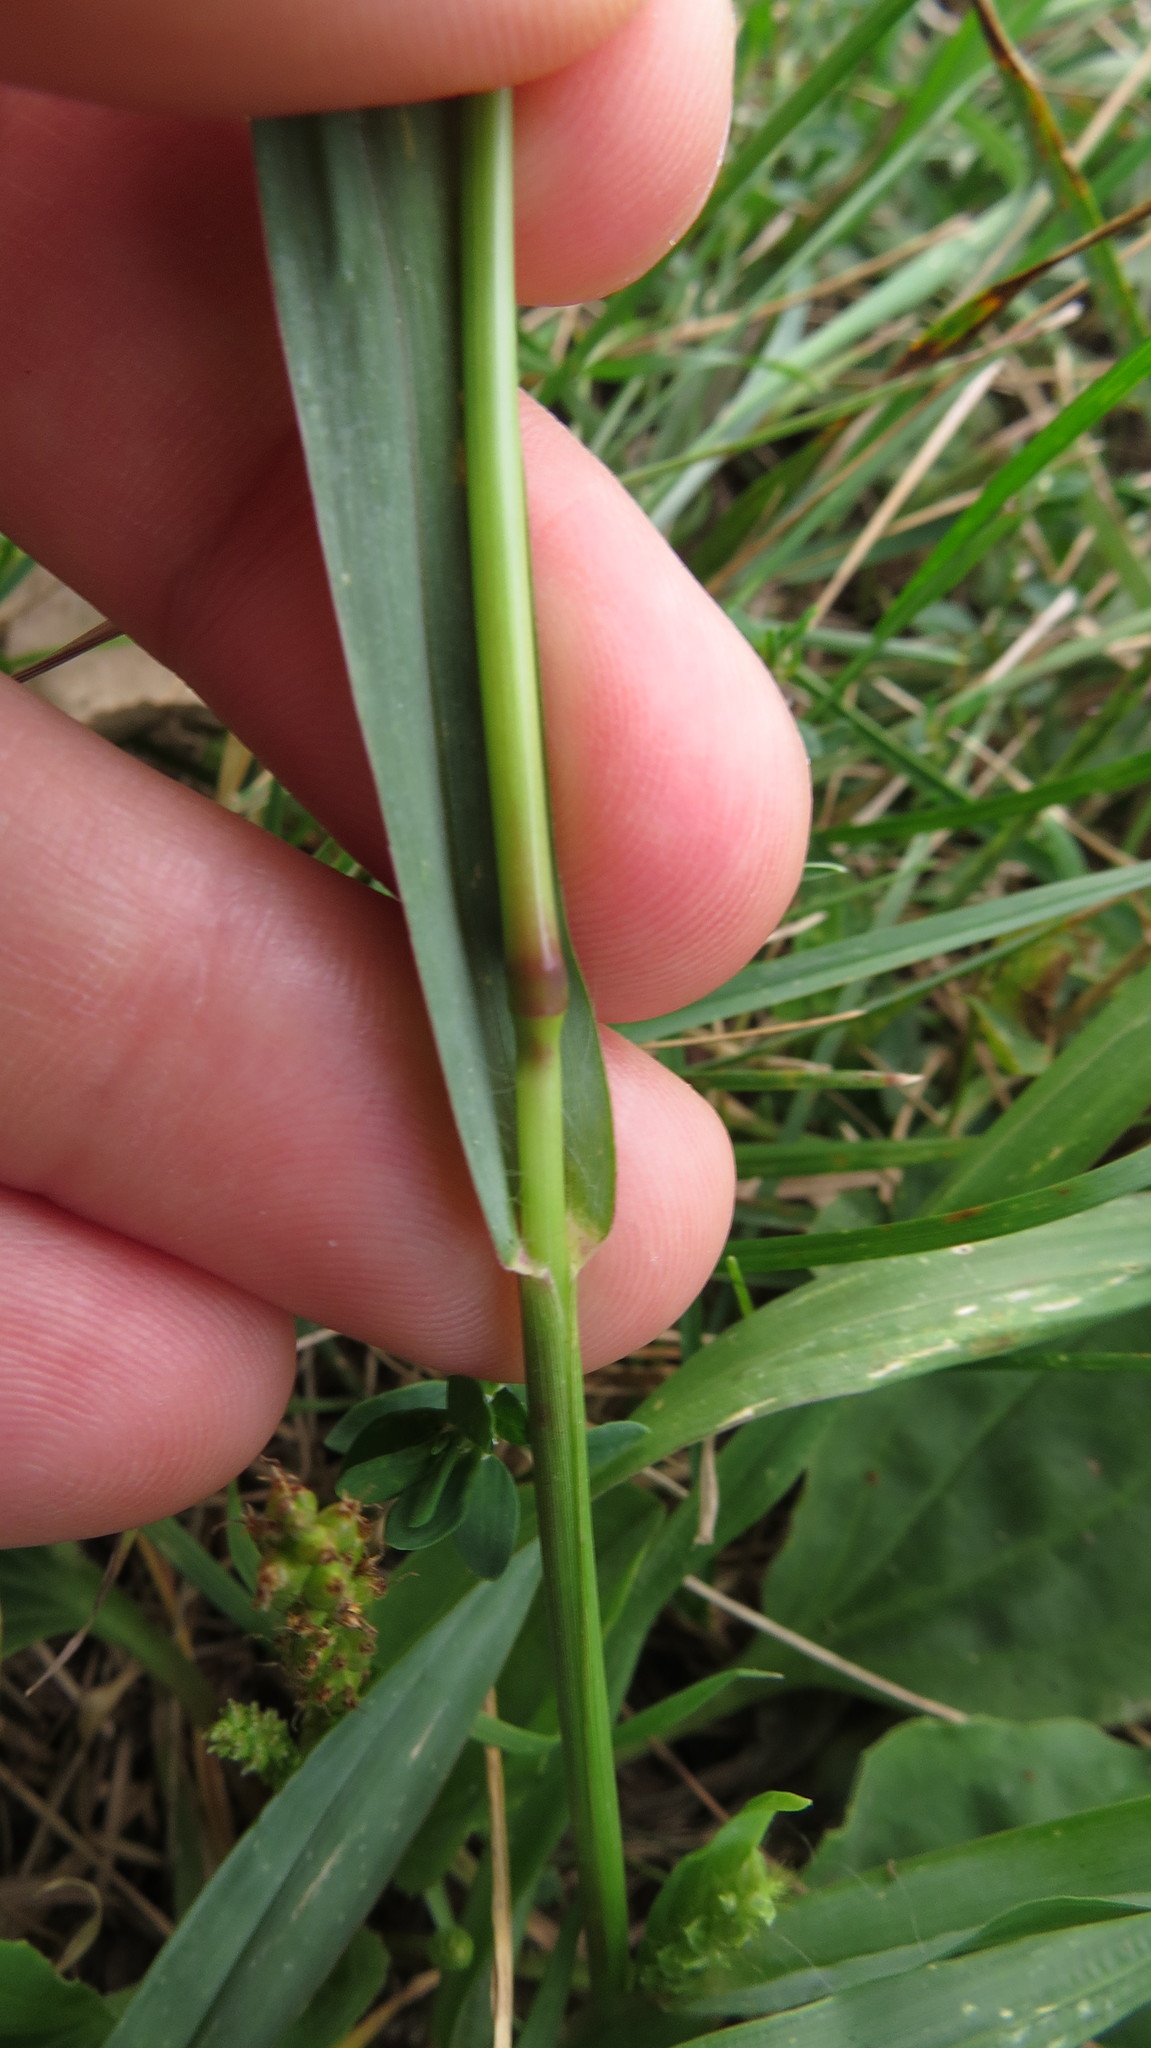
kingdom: Plantae
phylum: Tracheophyta
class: Liliopsida
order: Poales
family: Poaceae
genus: Setaria
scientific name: Setaria pumila
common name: Yellow bristle-grass
